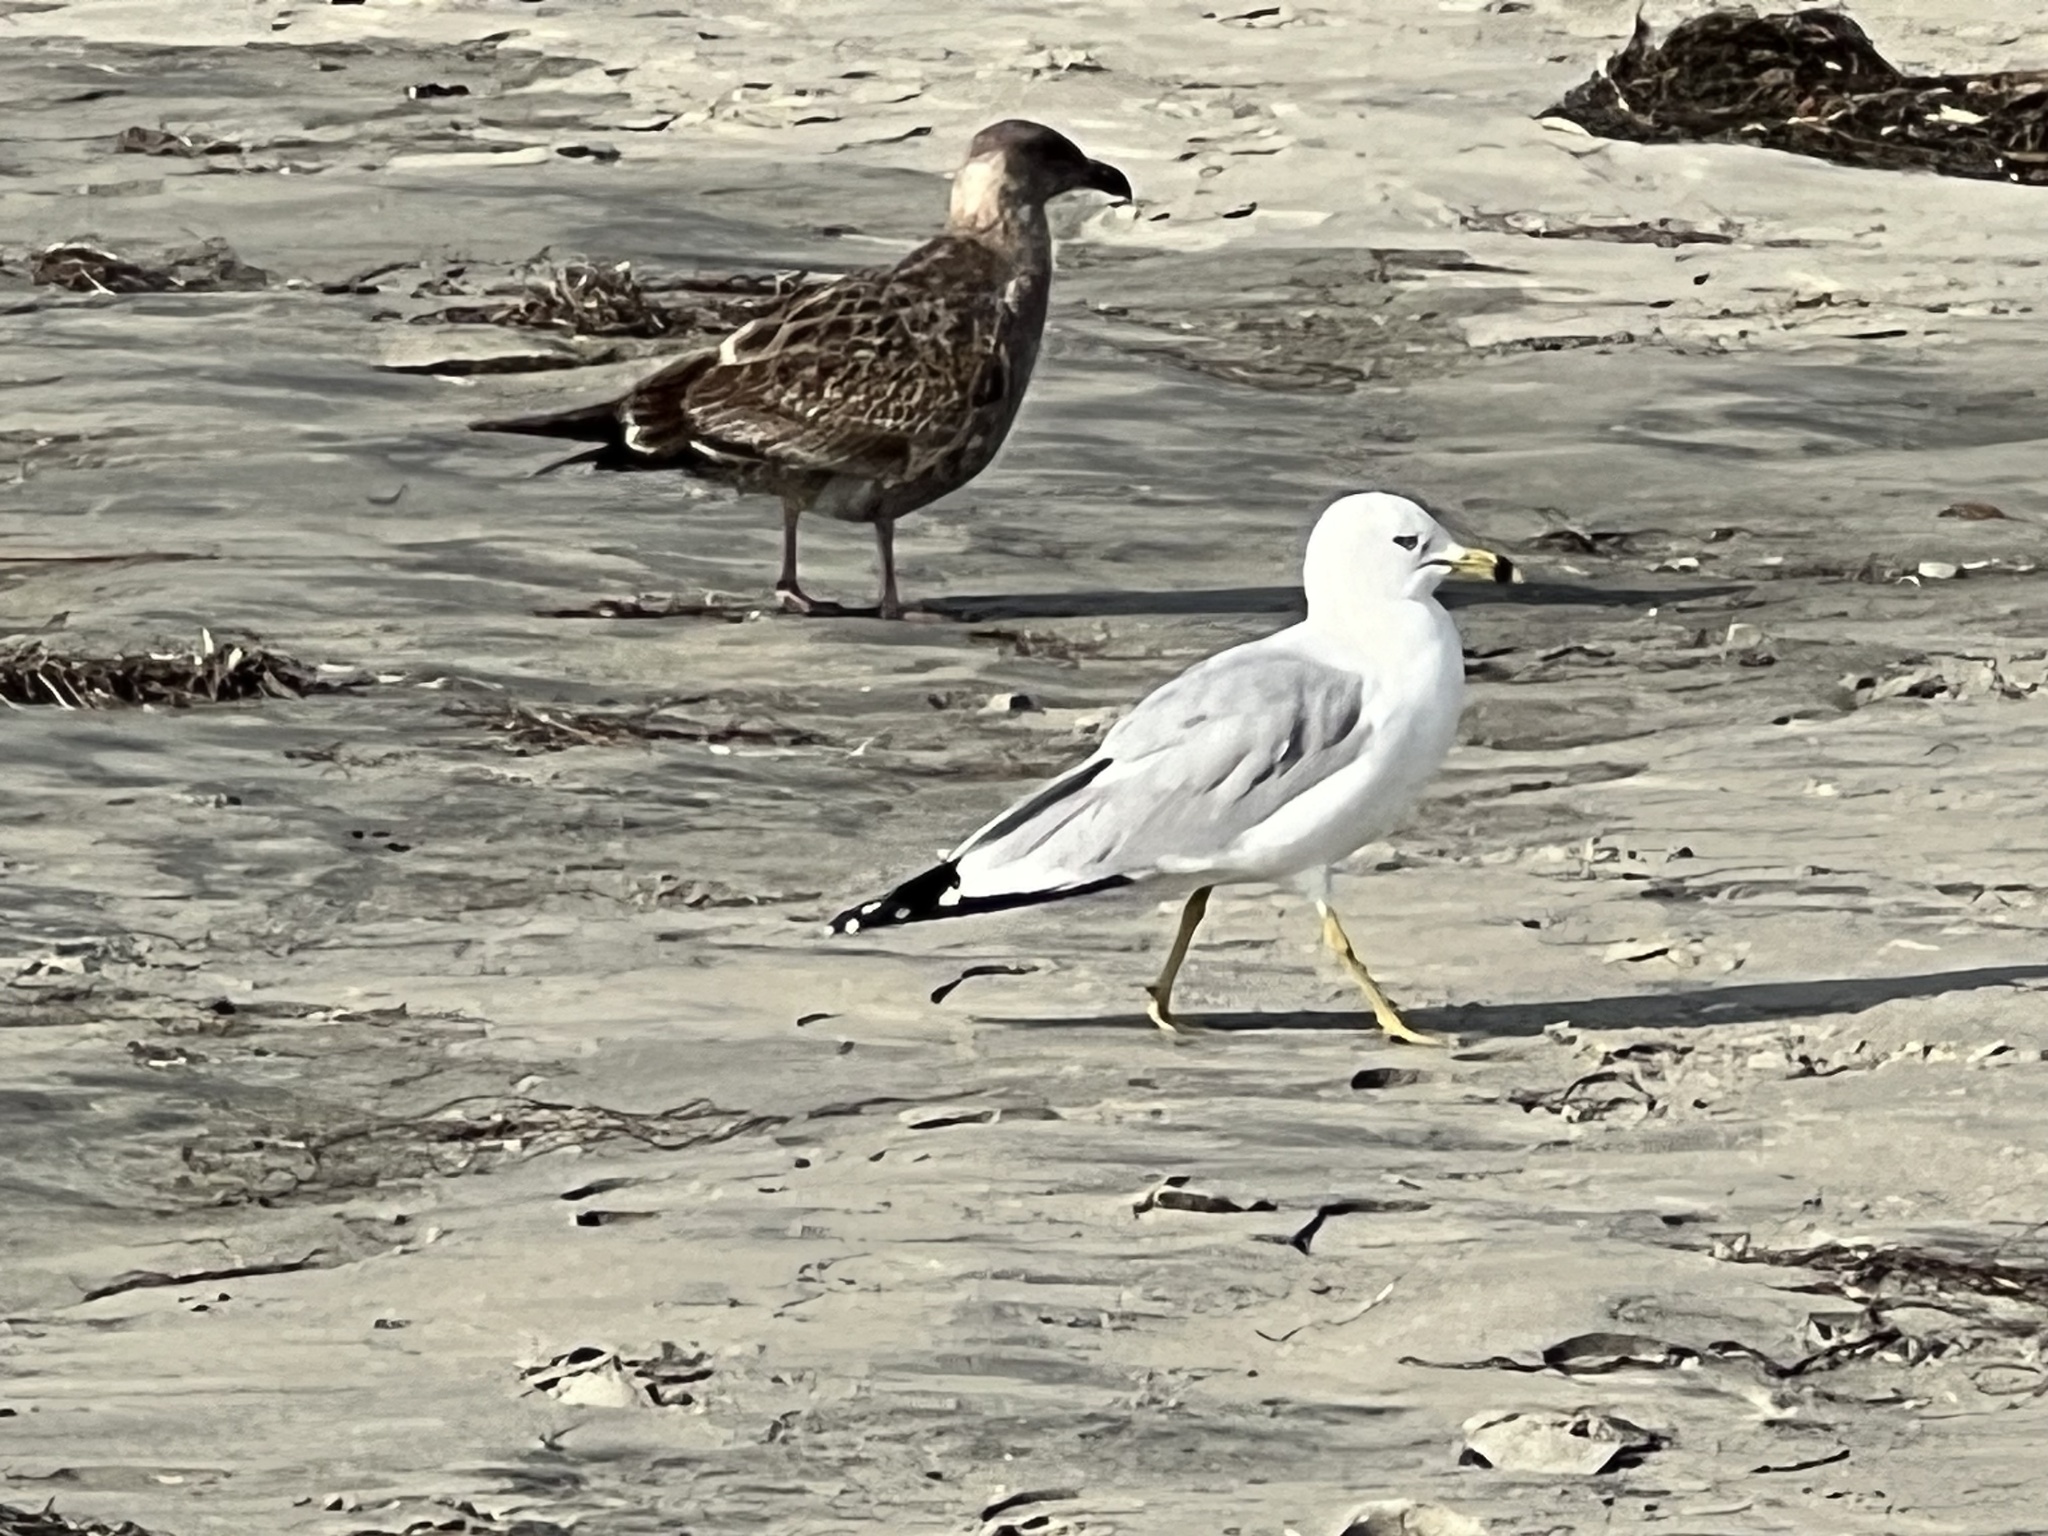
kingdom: Animalia
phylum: Chordata
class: Aves
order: Charadriiformes
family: Laridae
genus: Larus
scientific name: Larus delawarensis
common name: Ring-billed gull
